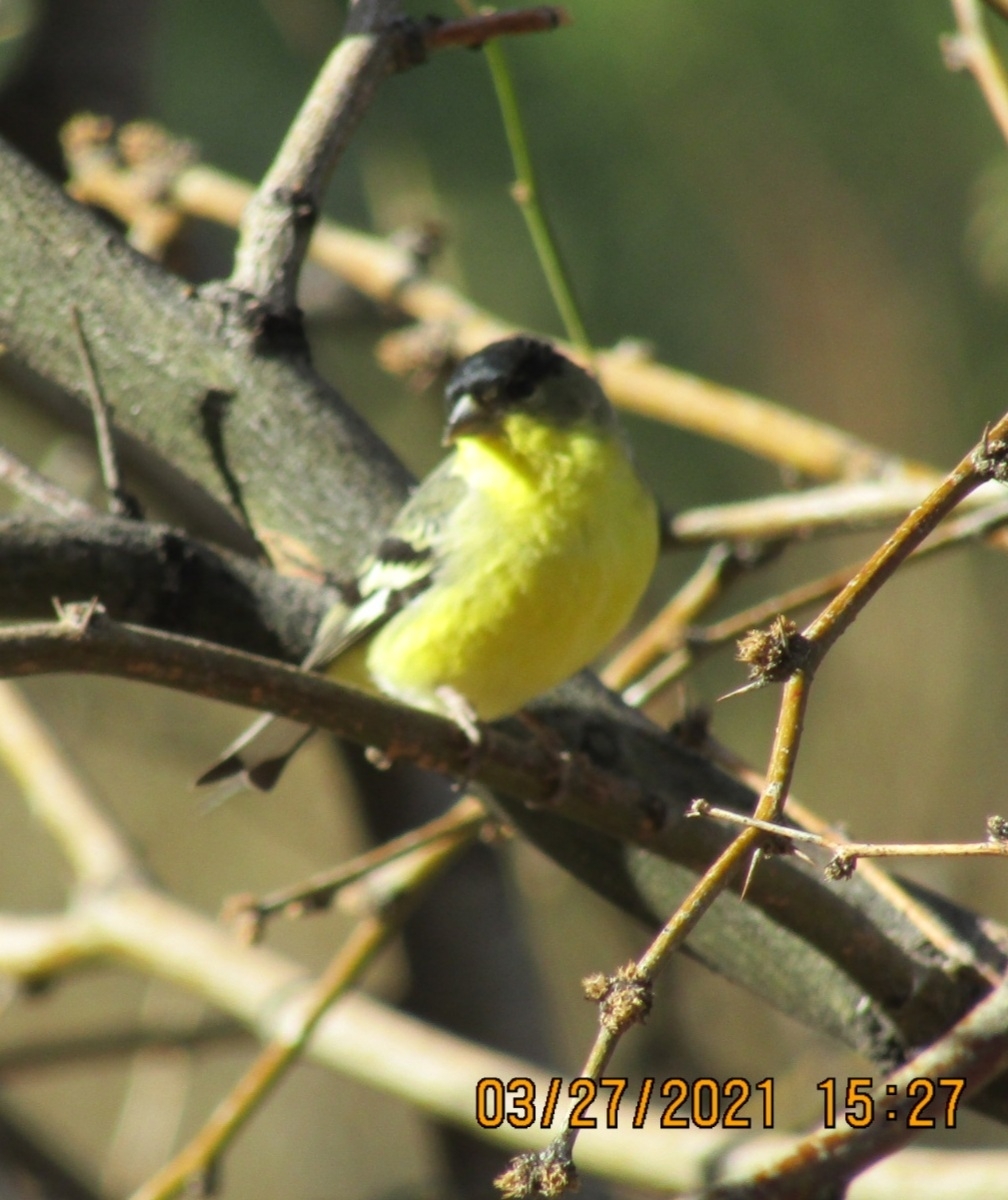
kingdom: Animalia
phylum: Chordata
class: Aves
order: Passeriformes
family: Fringillidae
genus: Spinus
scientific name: Spinus psaltria
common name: Lesser goldfinch
